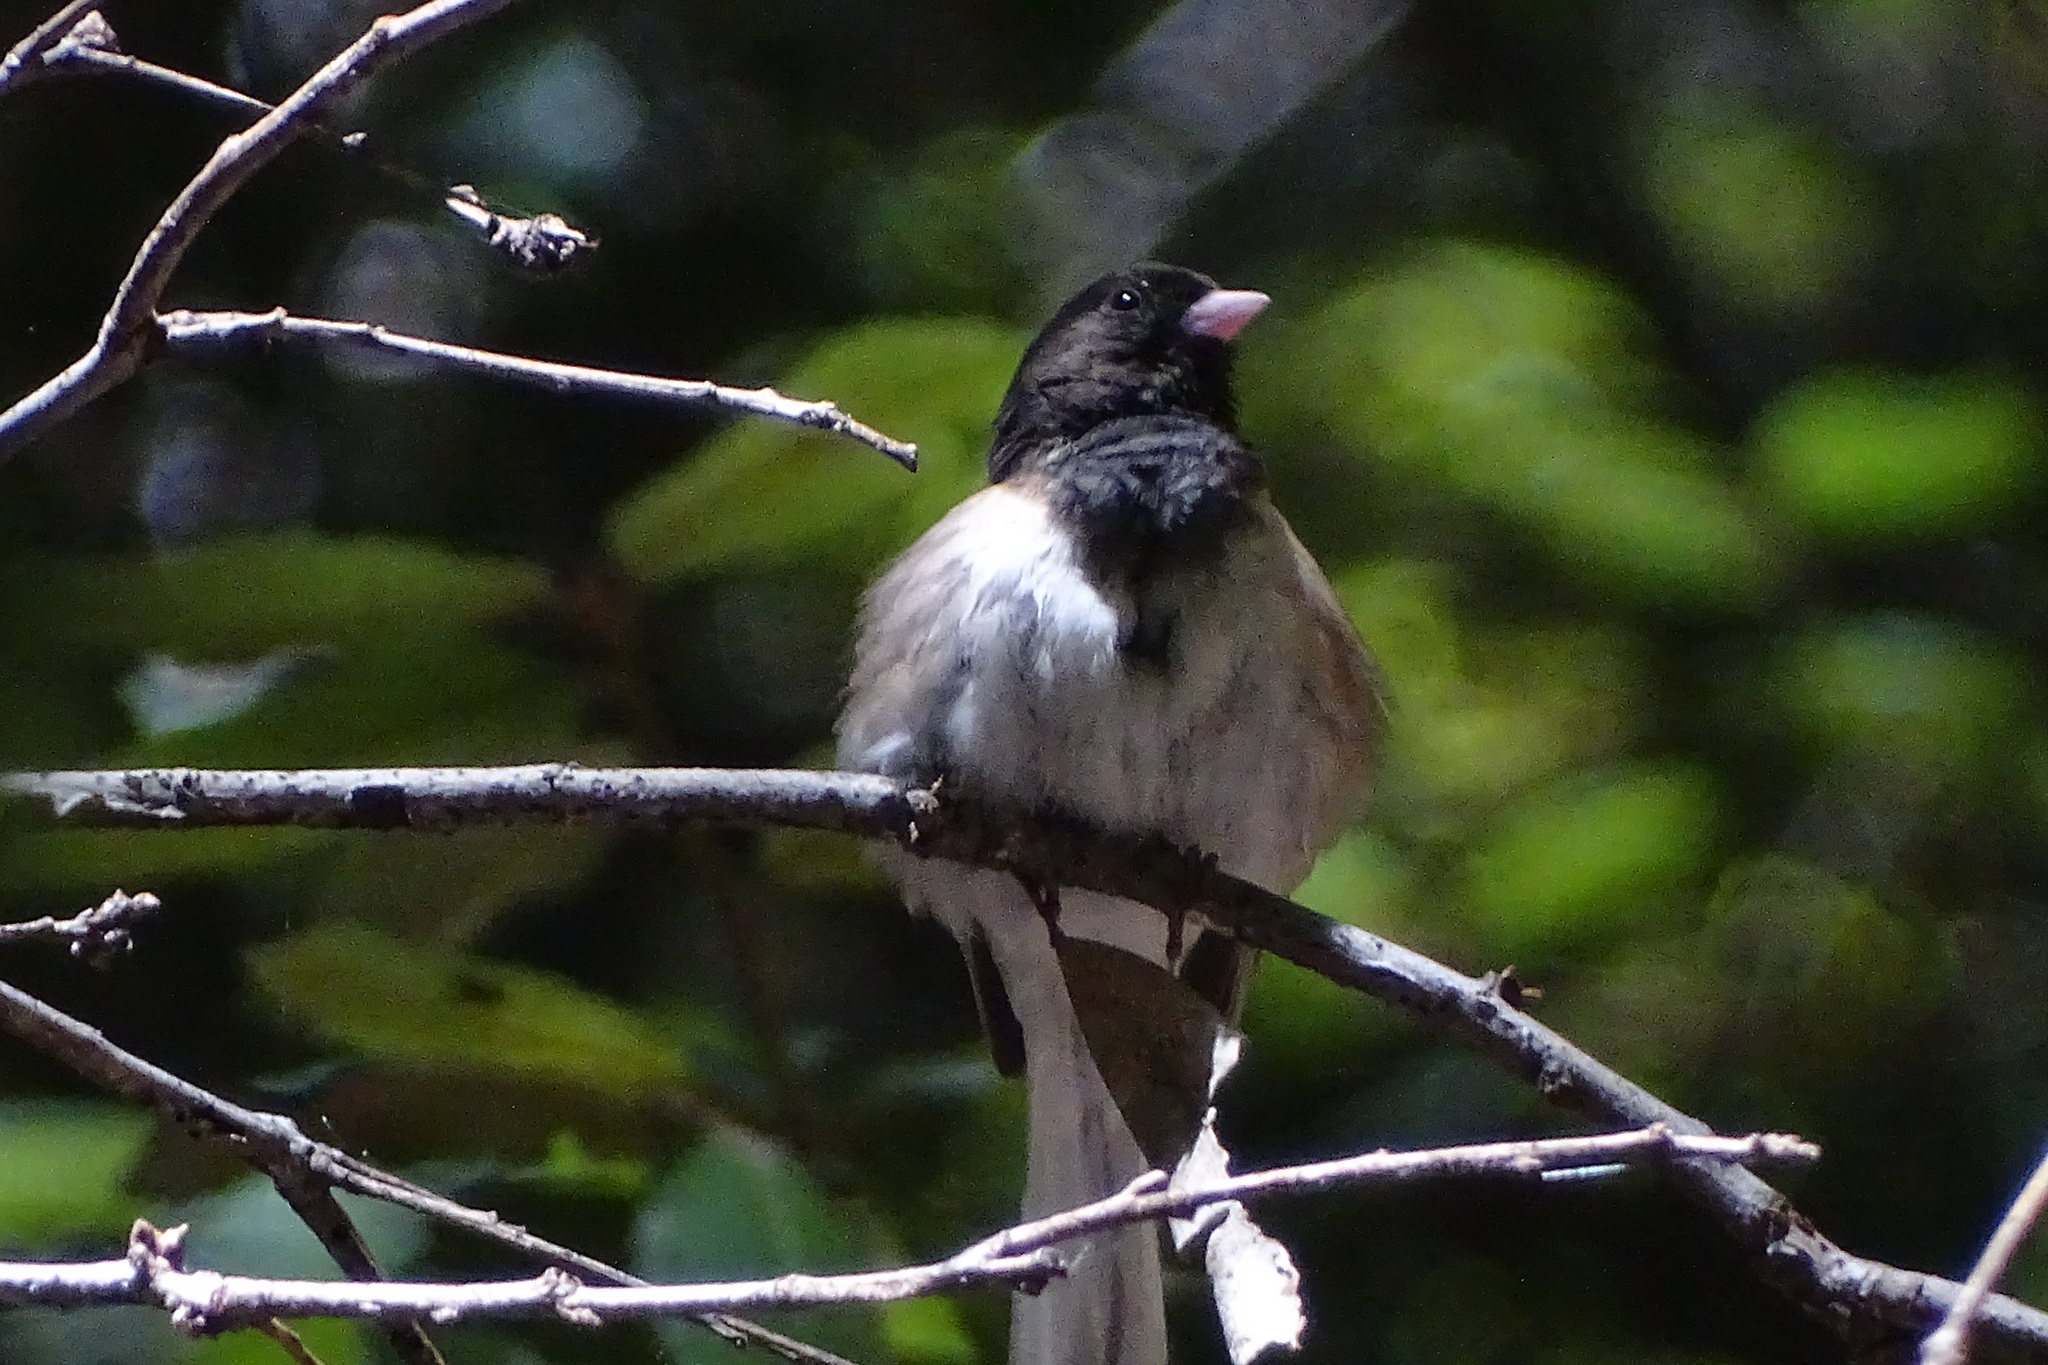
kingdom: Animalia
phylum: Chordata
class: Aves
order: Passeriformes
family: Passerellidae
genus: Junco
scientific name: Junco hyemalis
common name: Dark-eyed junco
